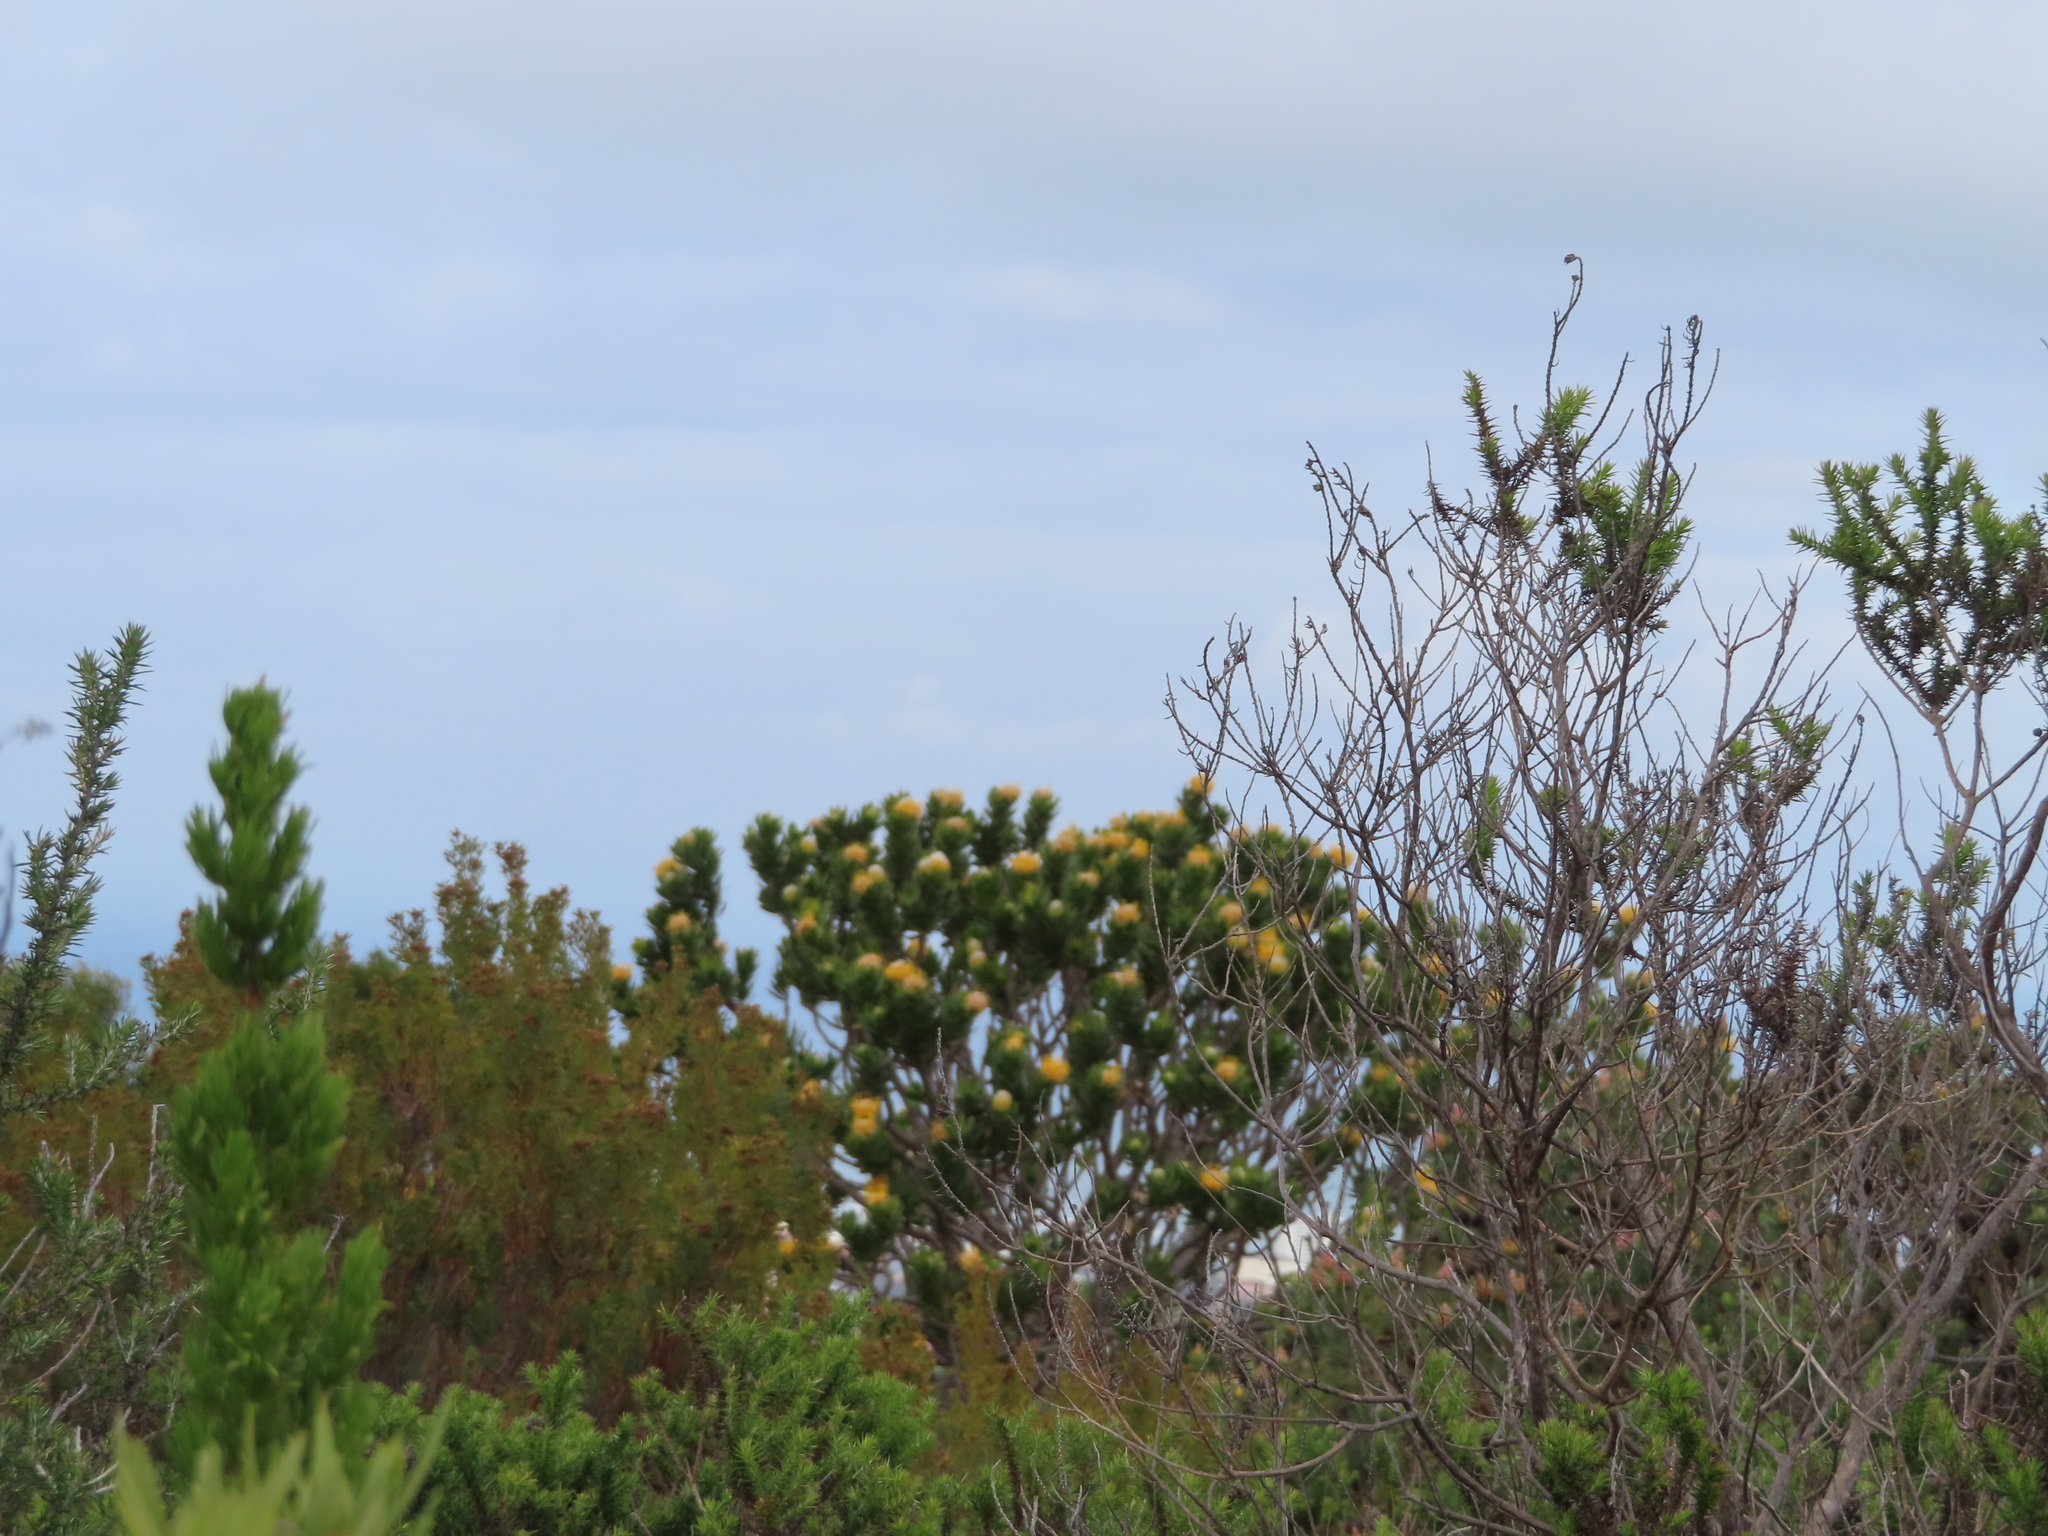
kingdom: Plantae
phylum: Tracheophyta
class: Magnoliopsida
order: Proteales
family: Proteaceae
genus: Leucospermum
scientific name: Leucospermum conocarpodendron
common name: Tree pincushion
